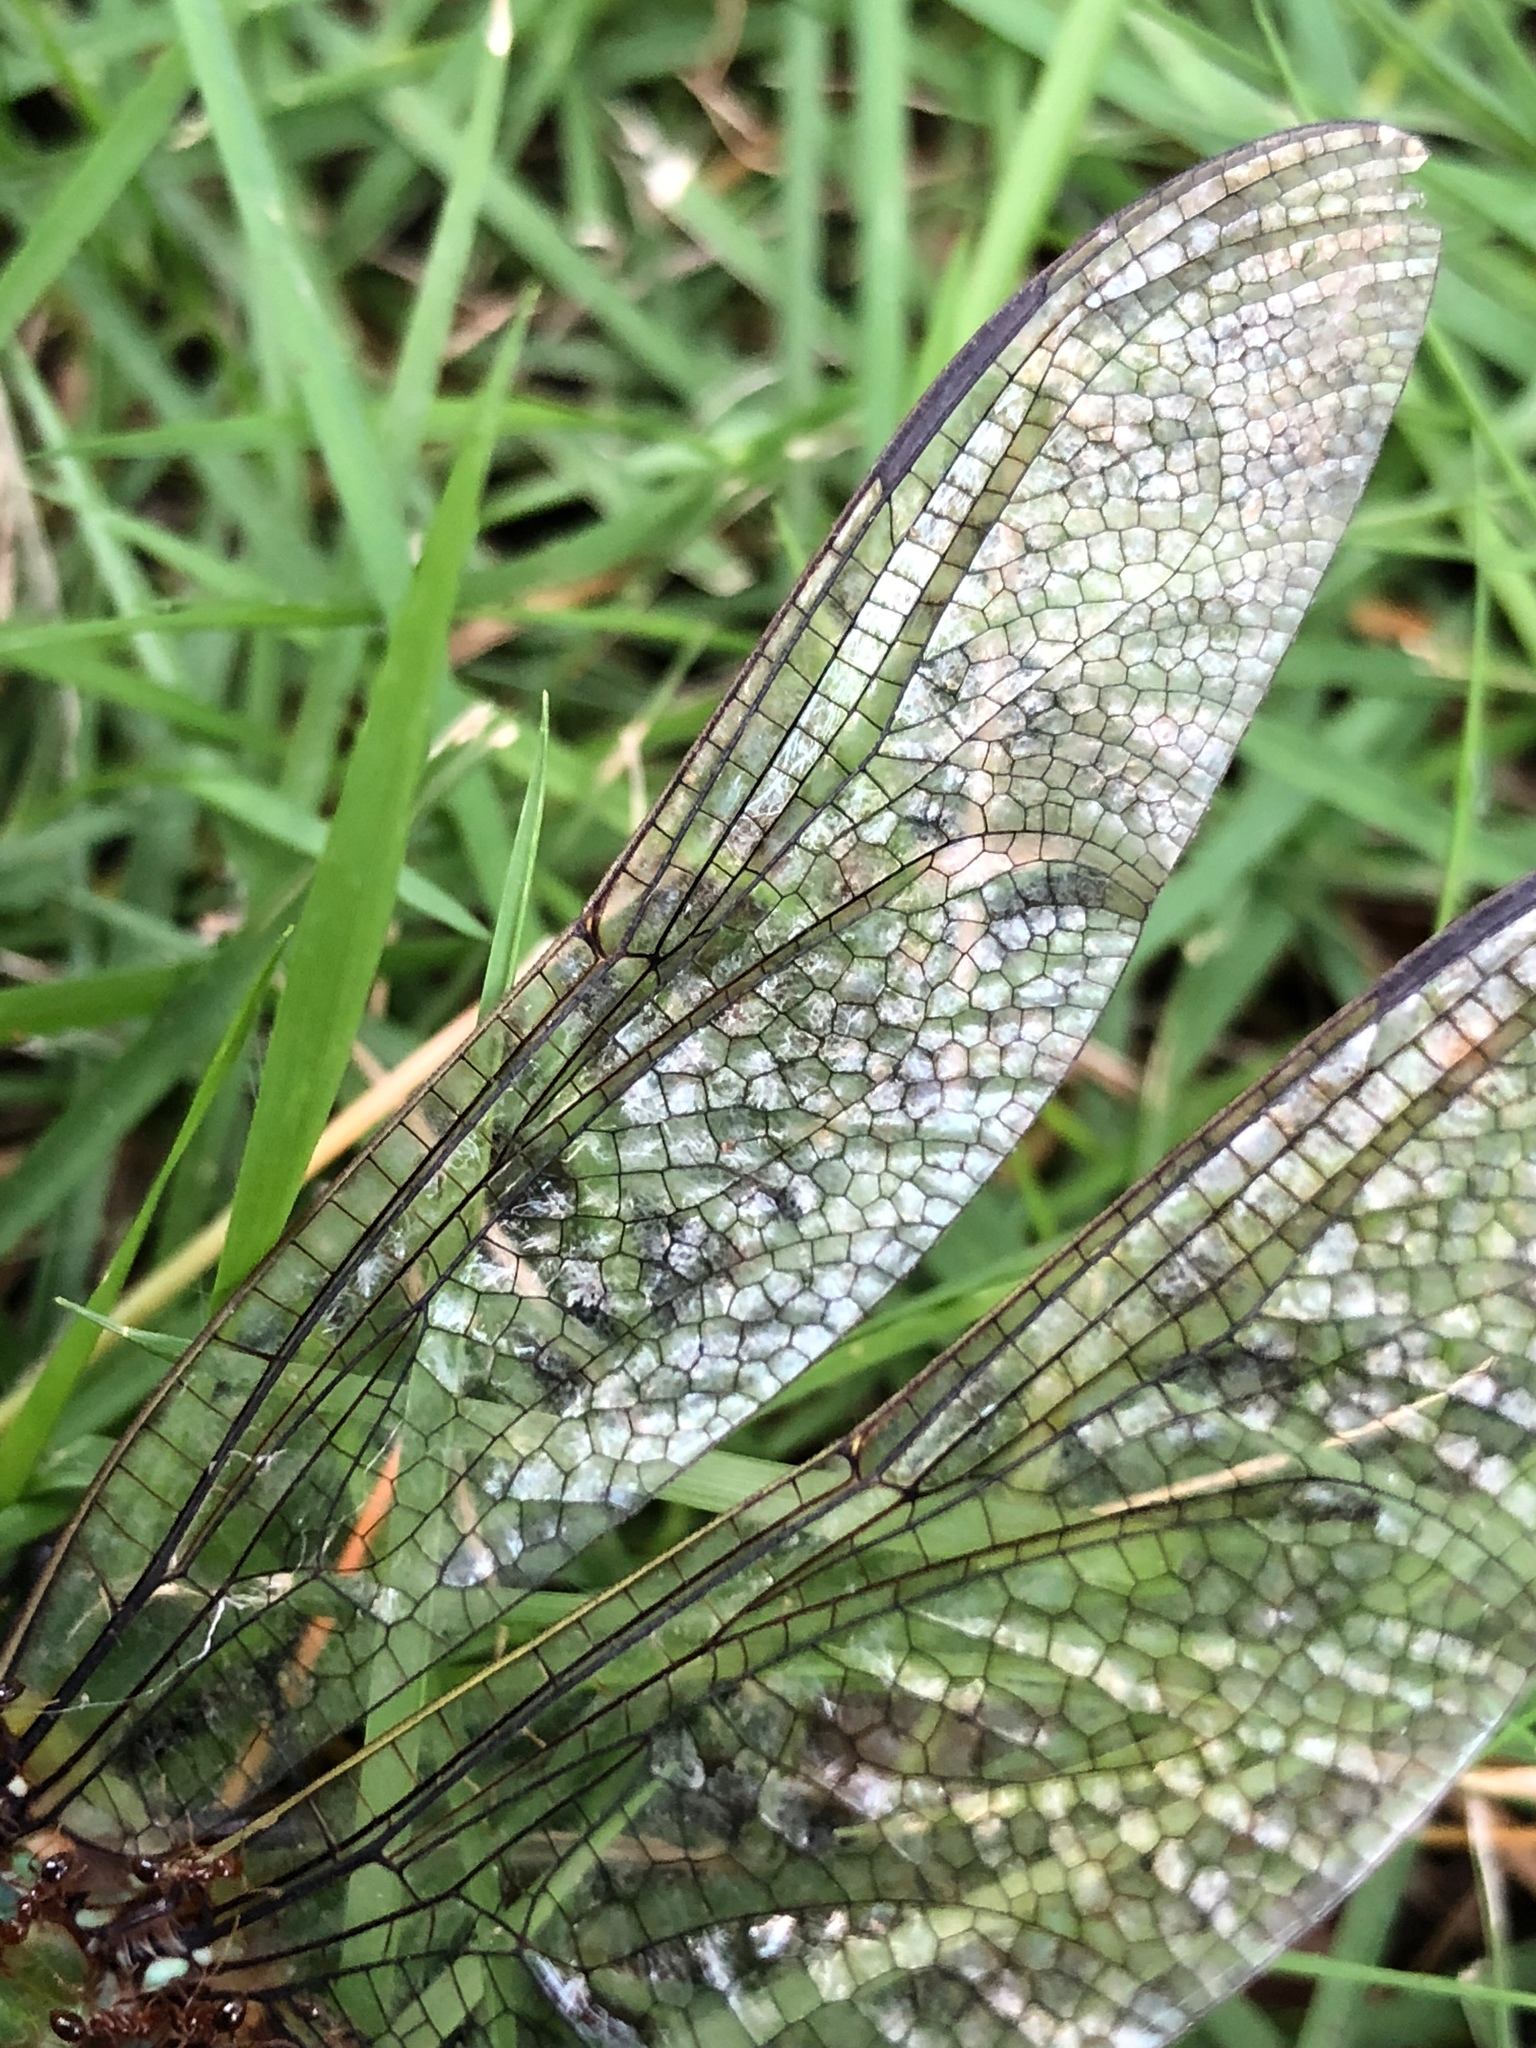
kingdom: Animalia
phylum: Arthropoda
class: Insecta
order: Odonata
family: Aeshnidae
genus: Anax
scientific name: Anax junius
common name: Common green darner
